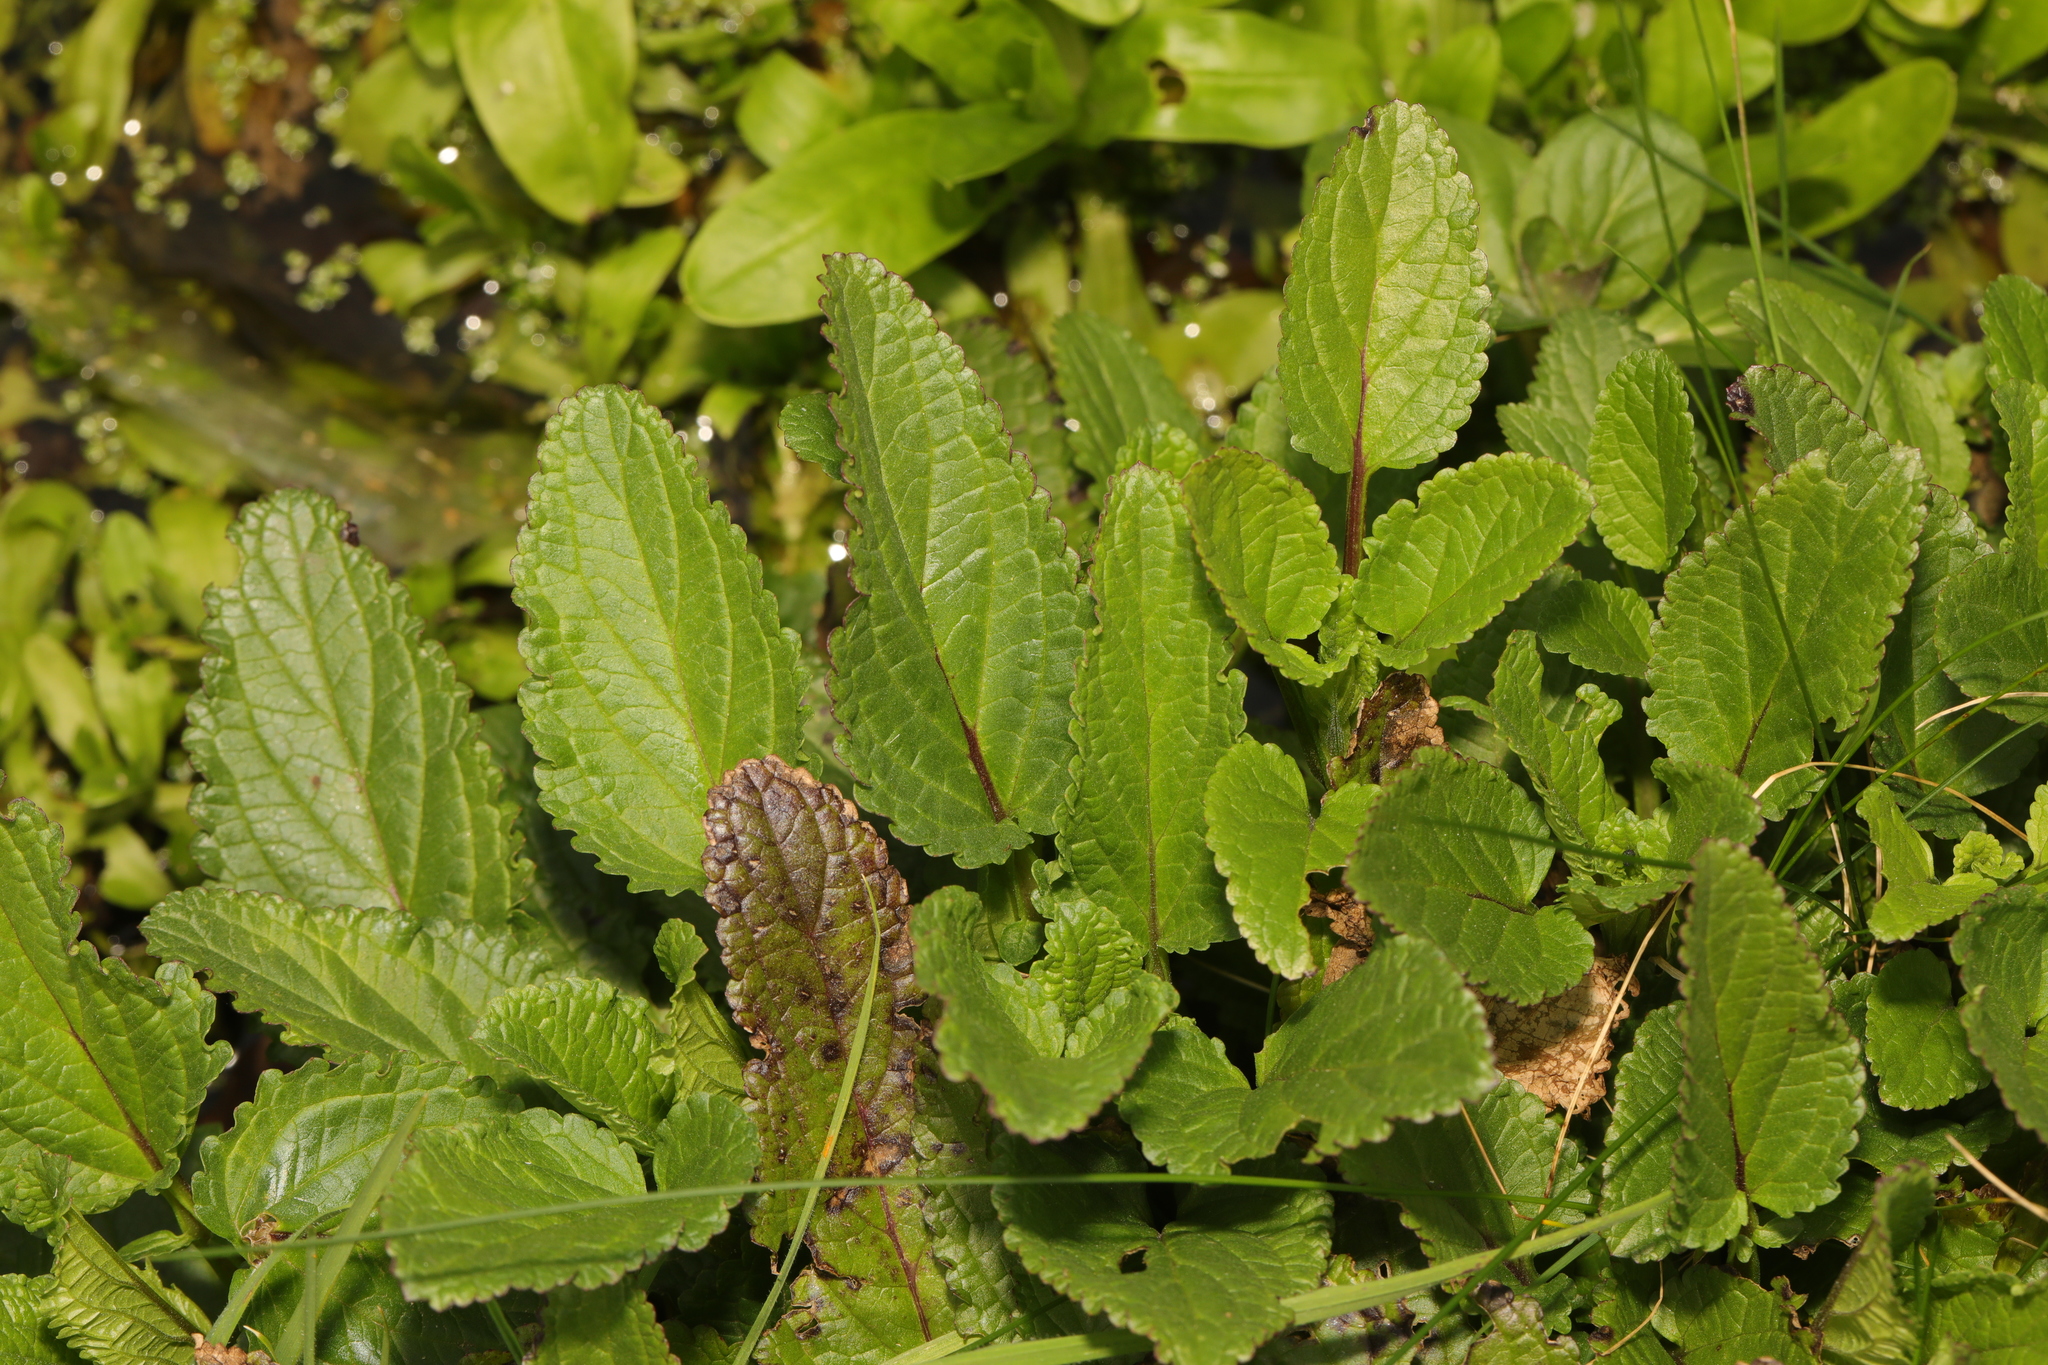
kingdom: Plantae
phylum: Tracheophyta
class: Magnoliopsida
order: Lamiales
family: Scrophulariaceae
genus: Scrophularia
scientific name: Scrophularia auriculata
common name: Water betony
